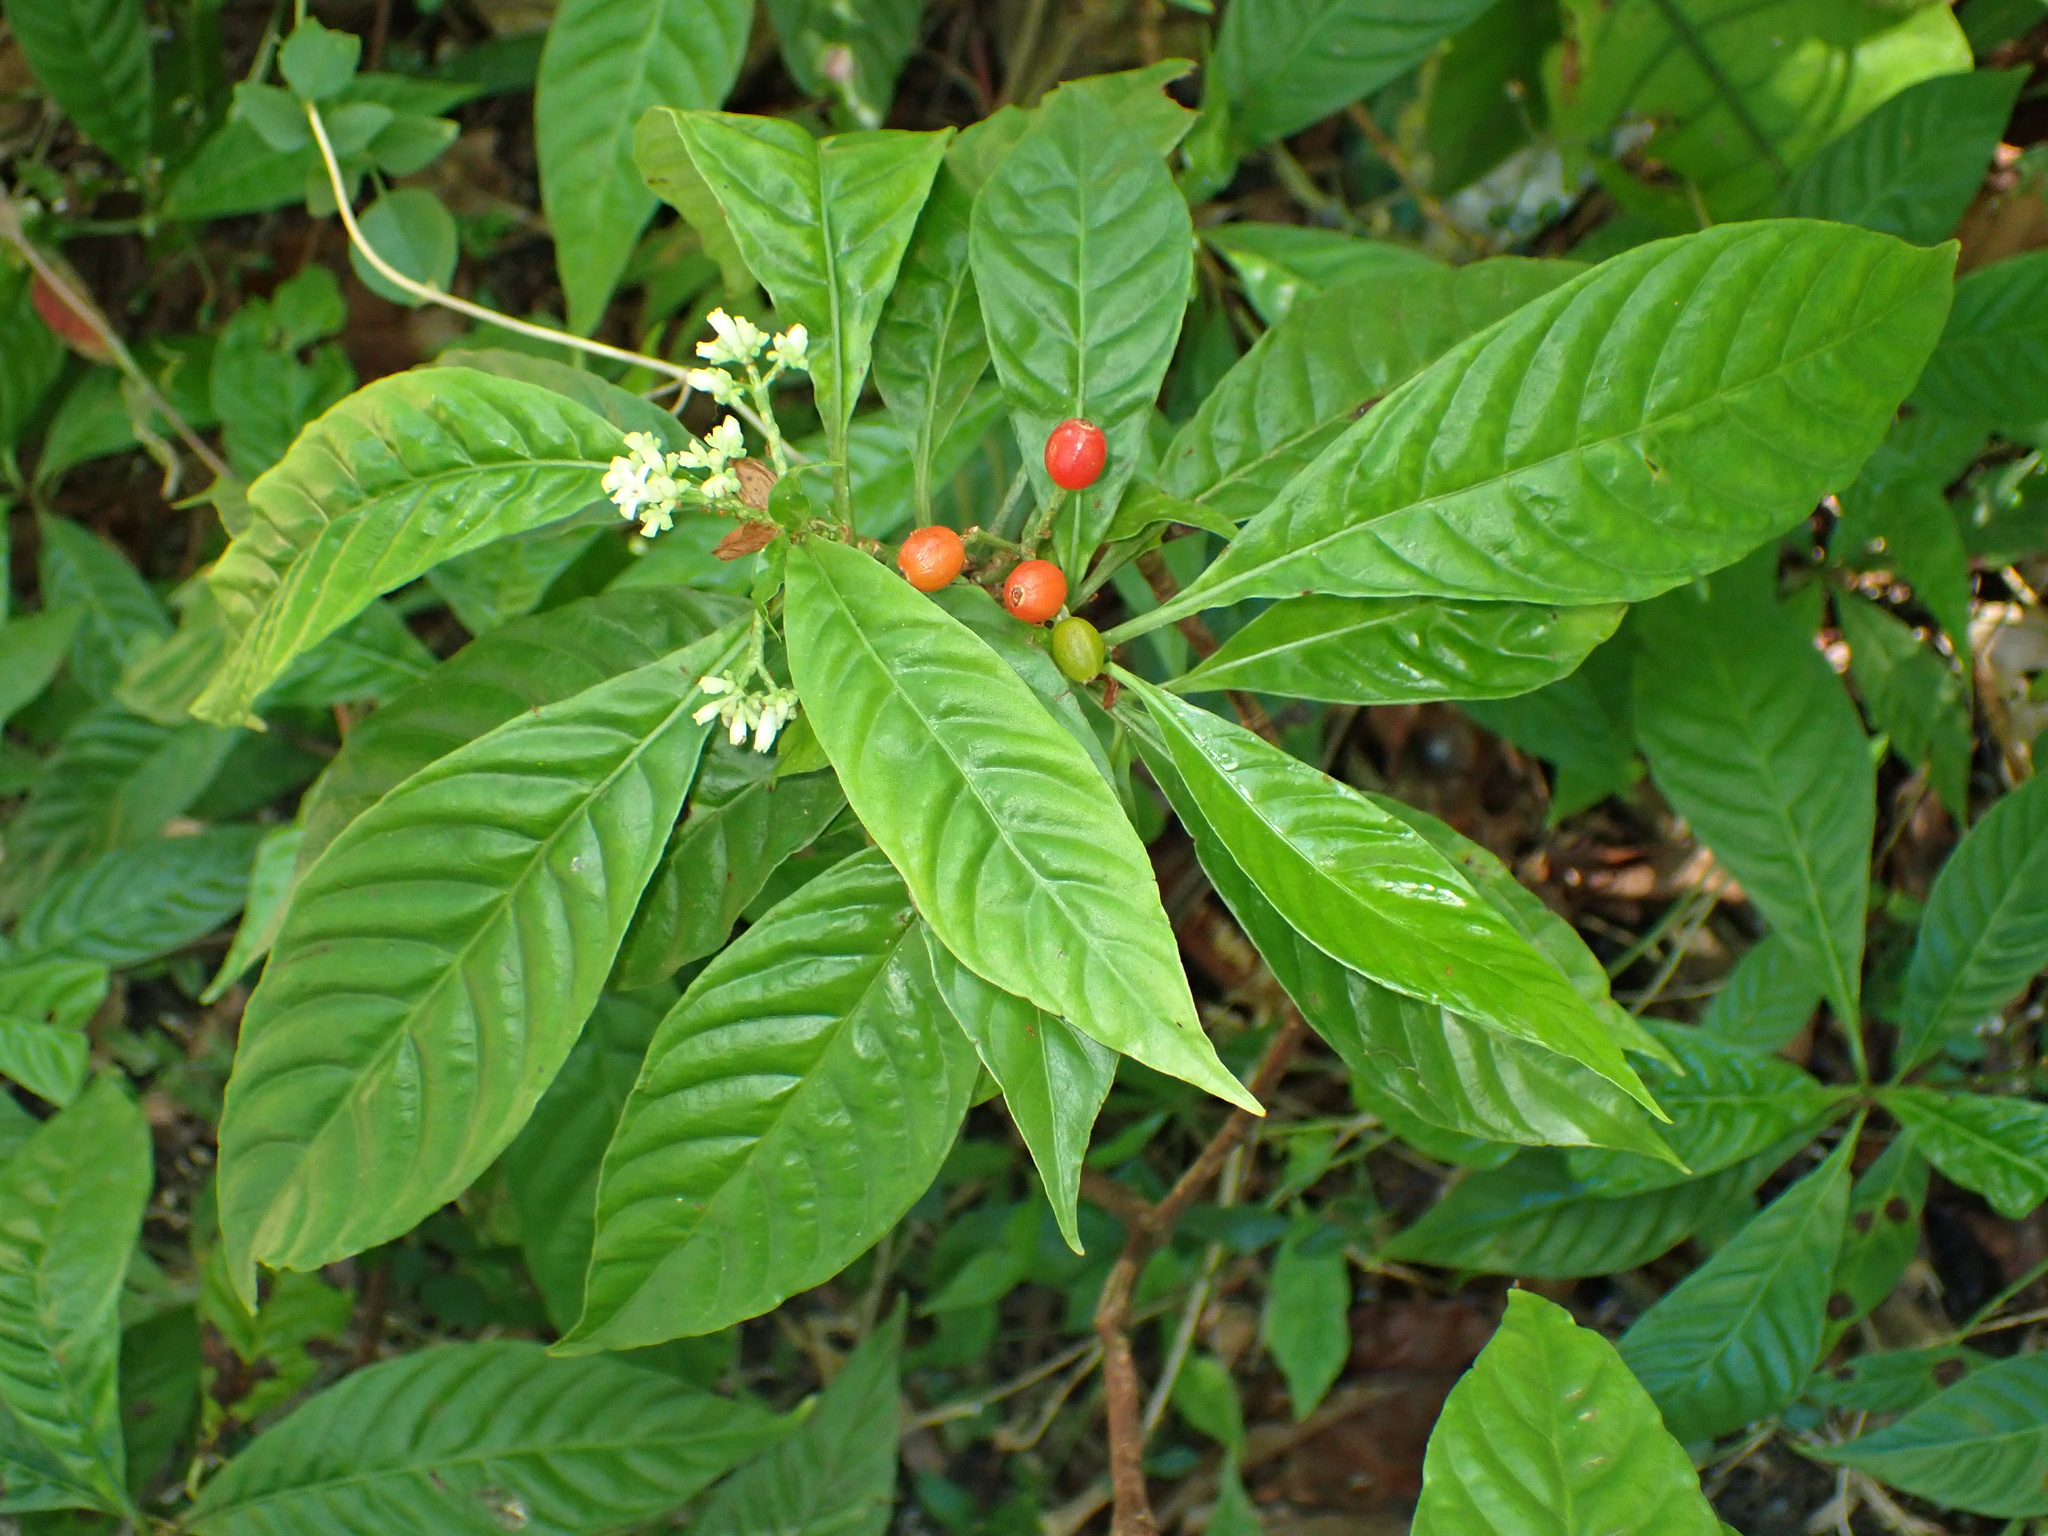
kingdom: Plantae
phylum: Tracheophyta
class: Magnoliopsida
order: Gentianales
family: Rubiaceae
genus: Psychotria
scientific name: Psychotria nervosa
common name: Bastard cankerberry
